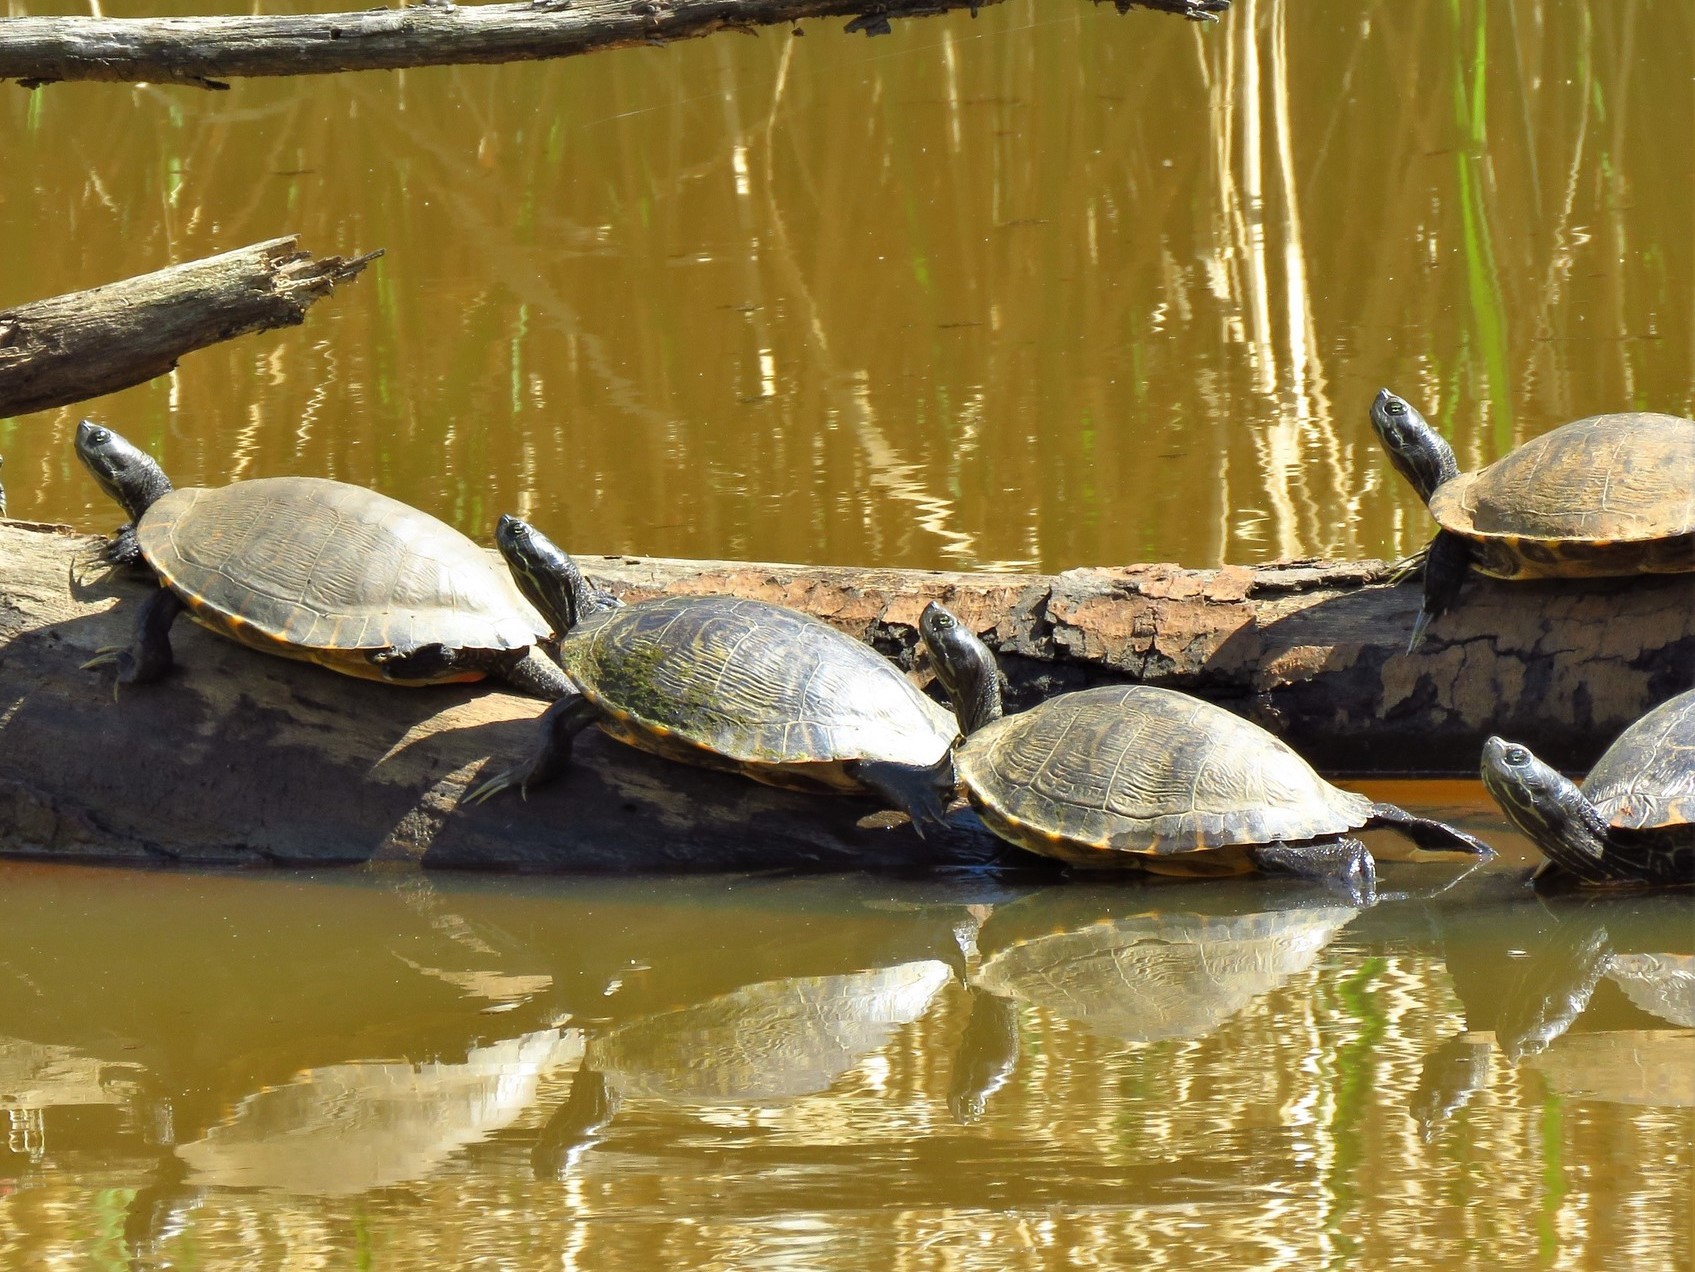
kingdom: Animalia
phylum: Chordata
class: Testudines
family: Emydidae
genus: Pseudemys
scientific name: Pseudemys concinna
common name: Eastern river cooter
